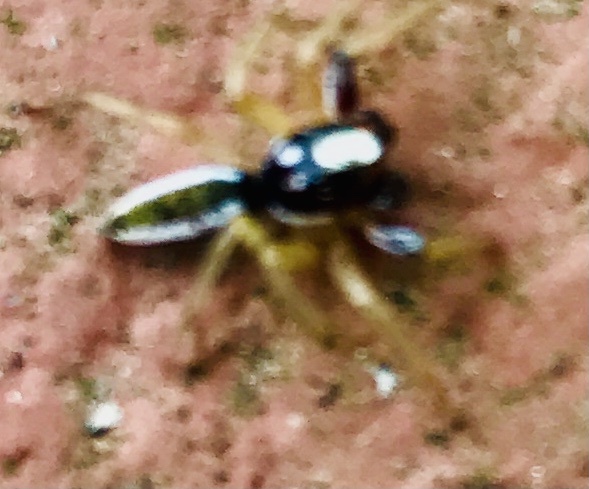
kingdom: Animalia
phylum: Arthropoda
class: Arachnida
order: Araneae
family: Salticidae
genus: Chira
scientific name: Chira spinosa
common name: Jumping spiders
